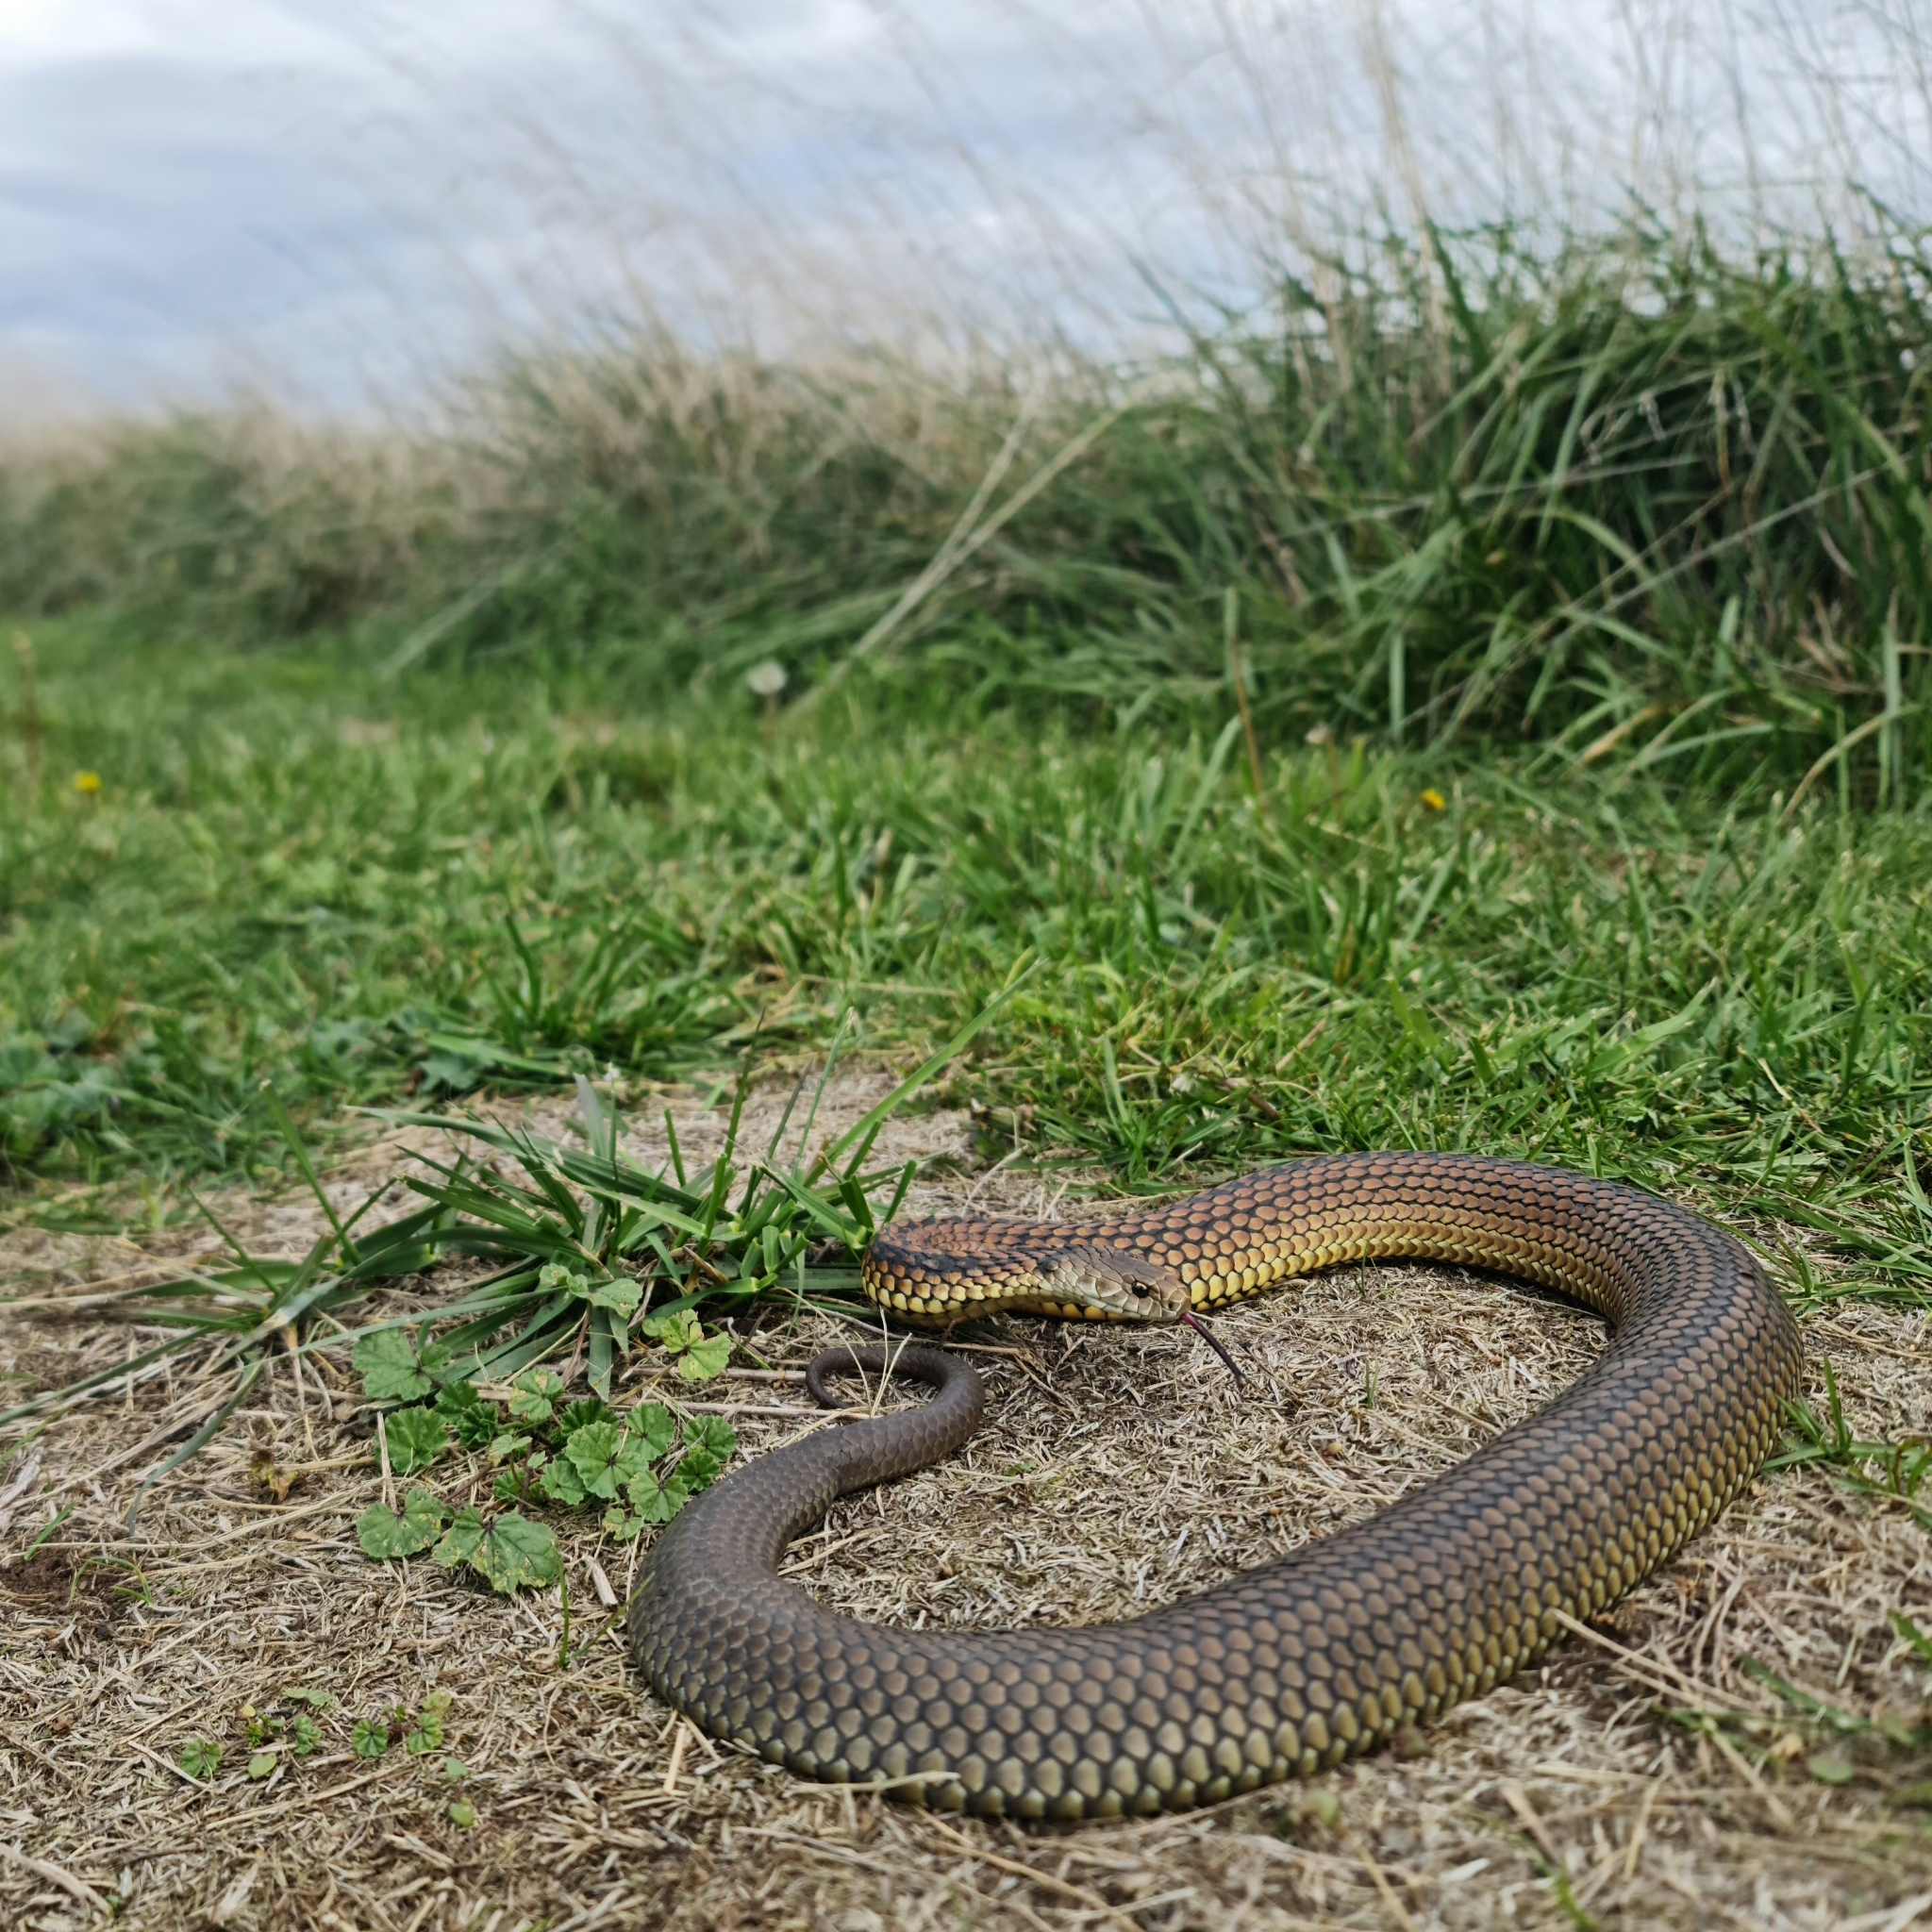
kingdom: Animalia
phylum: Chordata
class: Squamata
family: Elapidae
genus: Austrelaps
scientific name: Austrelaps ramsayi
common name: Highlands copperhead
